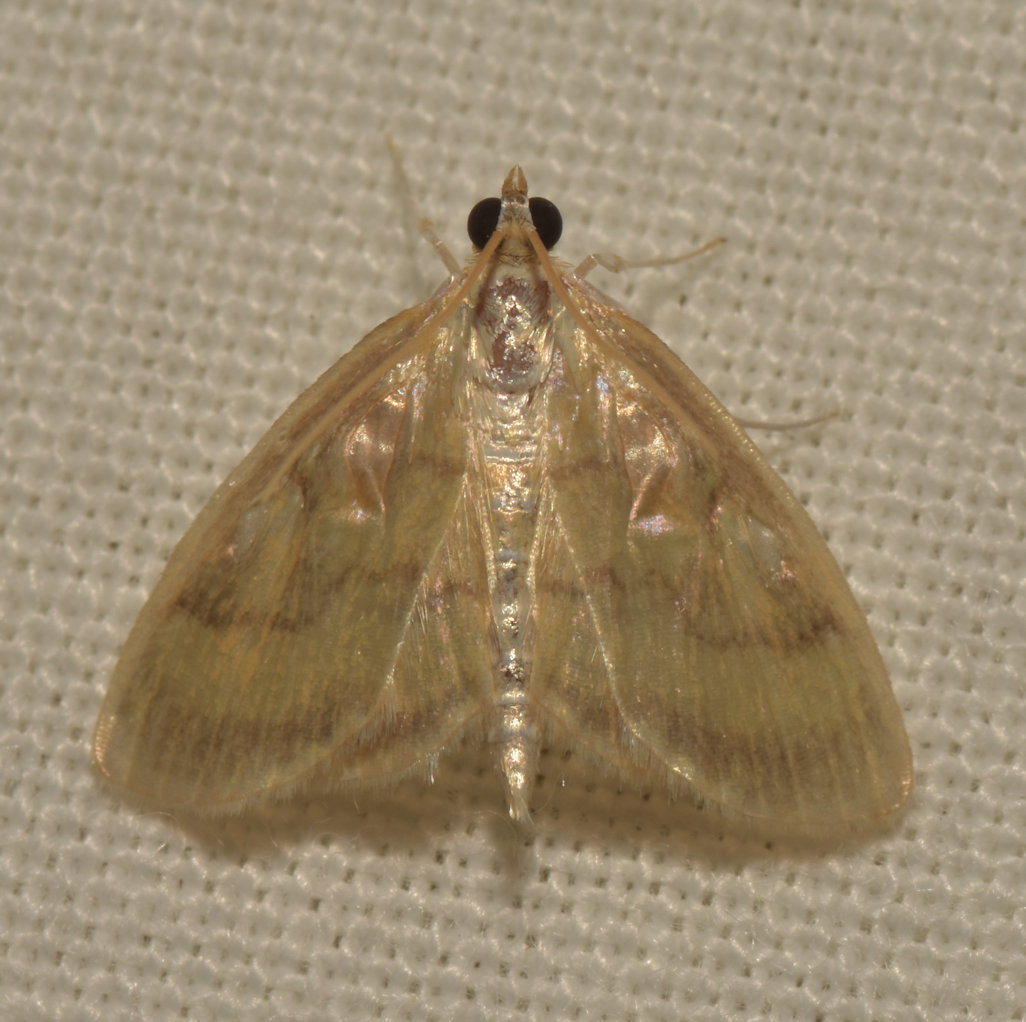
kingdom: Animalia
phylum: Arthropoda
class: Insecta
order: Lepidoptera
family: Crambidae
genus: Crocidophora
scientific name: Crocidophora tuberculalis
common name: Pale-winged crocidiphora moth
